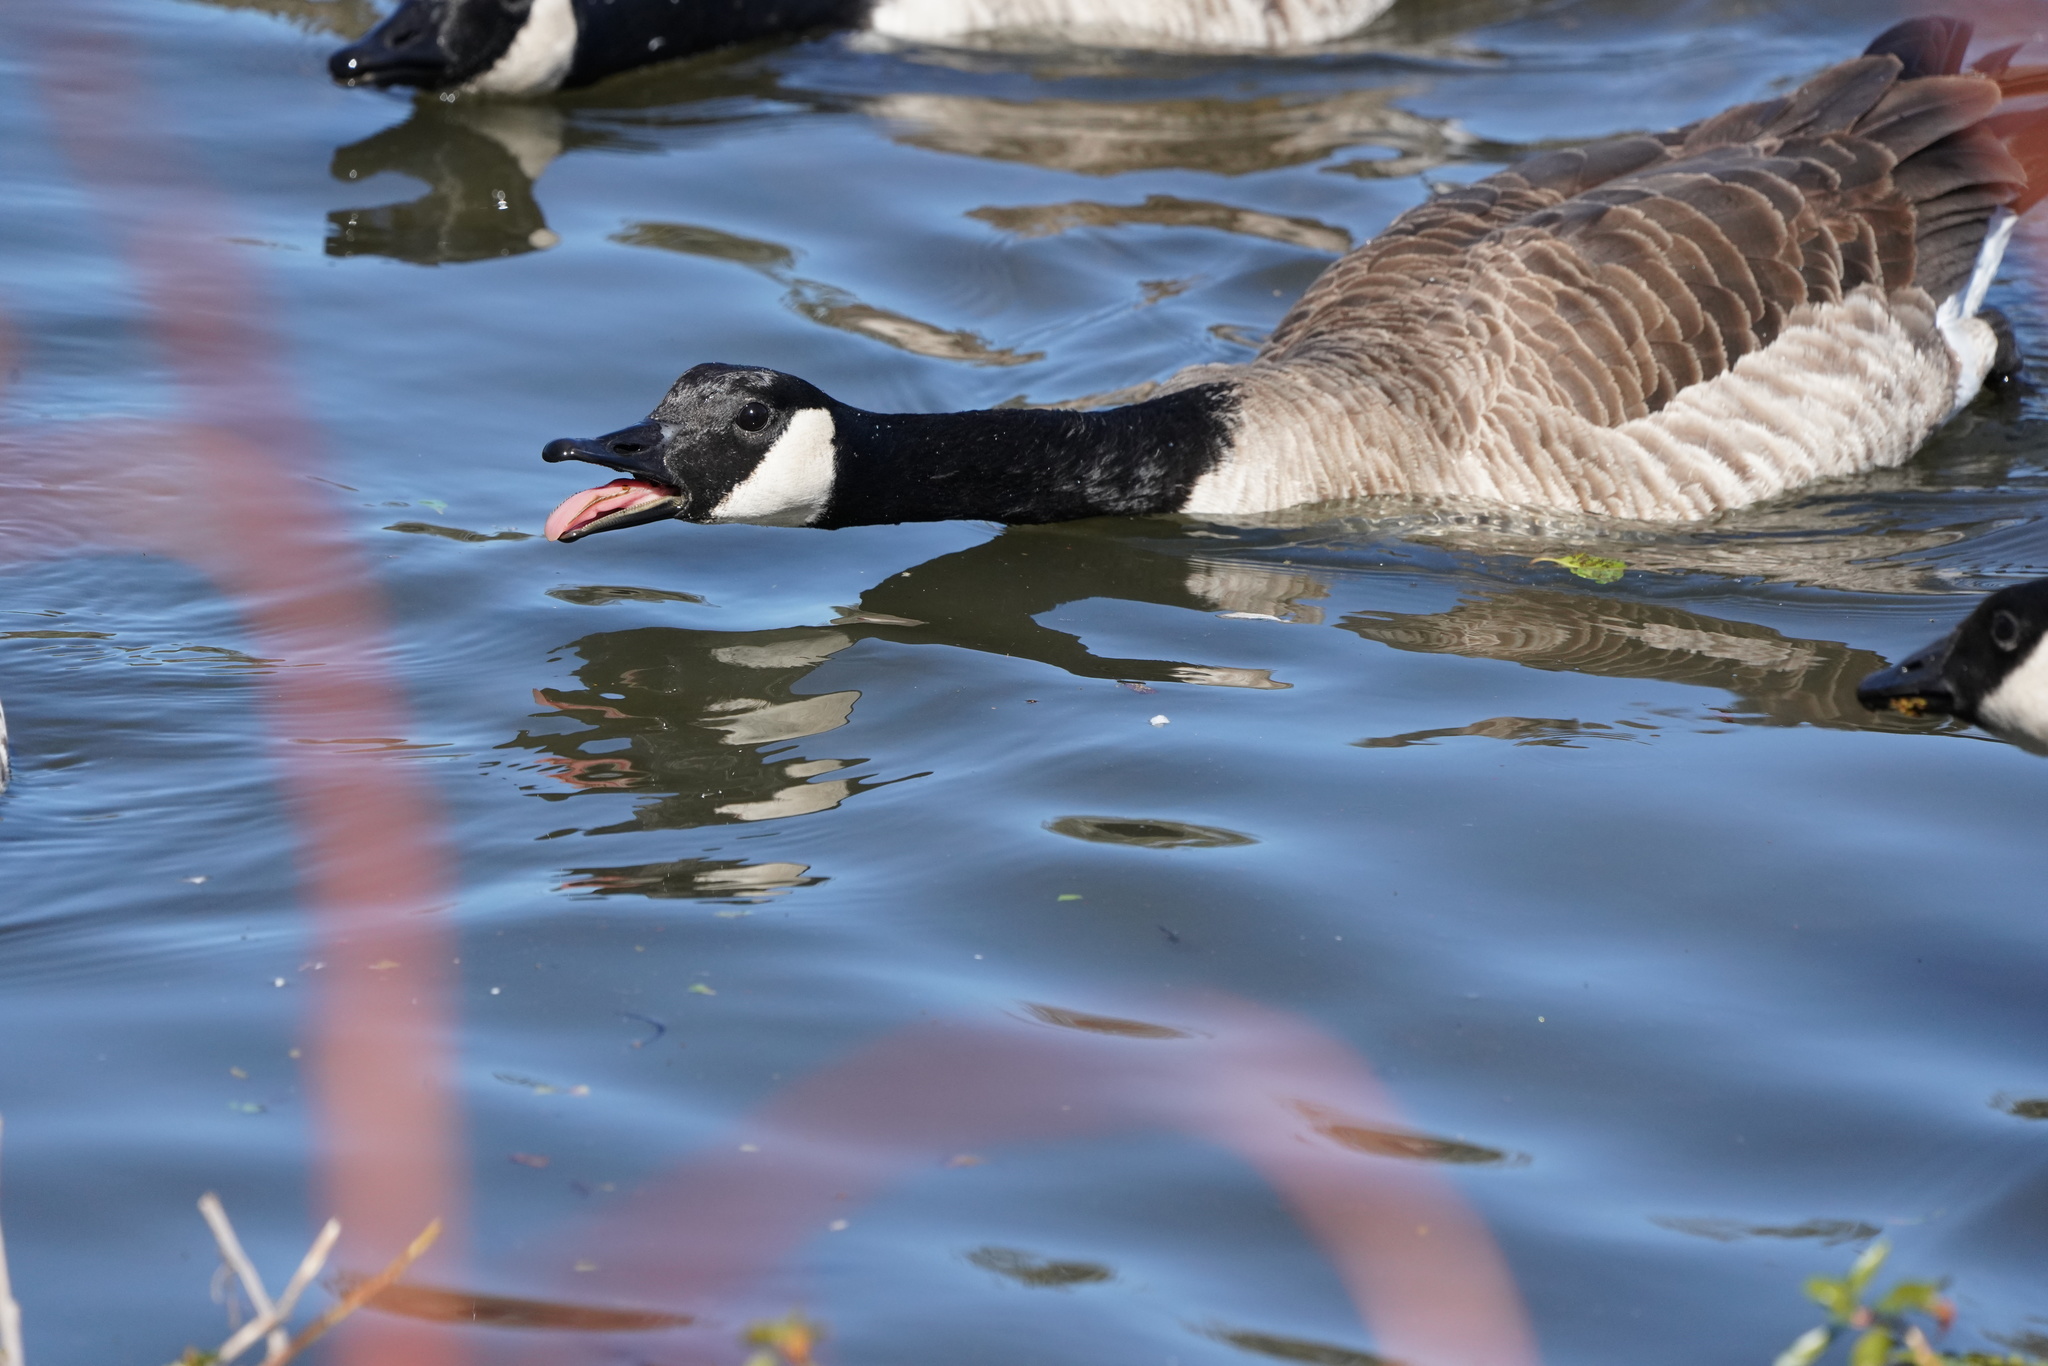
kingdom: Animalia
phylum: Chordata
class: Aves
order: Anseriformes
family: Anatidae
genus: Branta
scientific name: Branta canadensis
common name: Canada goose
